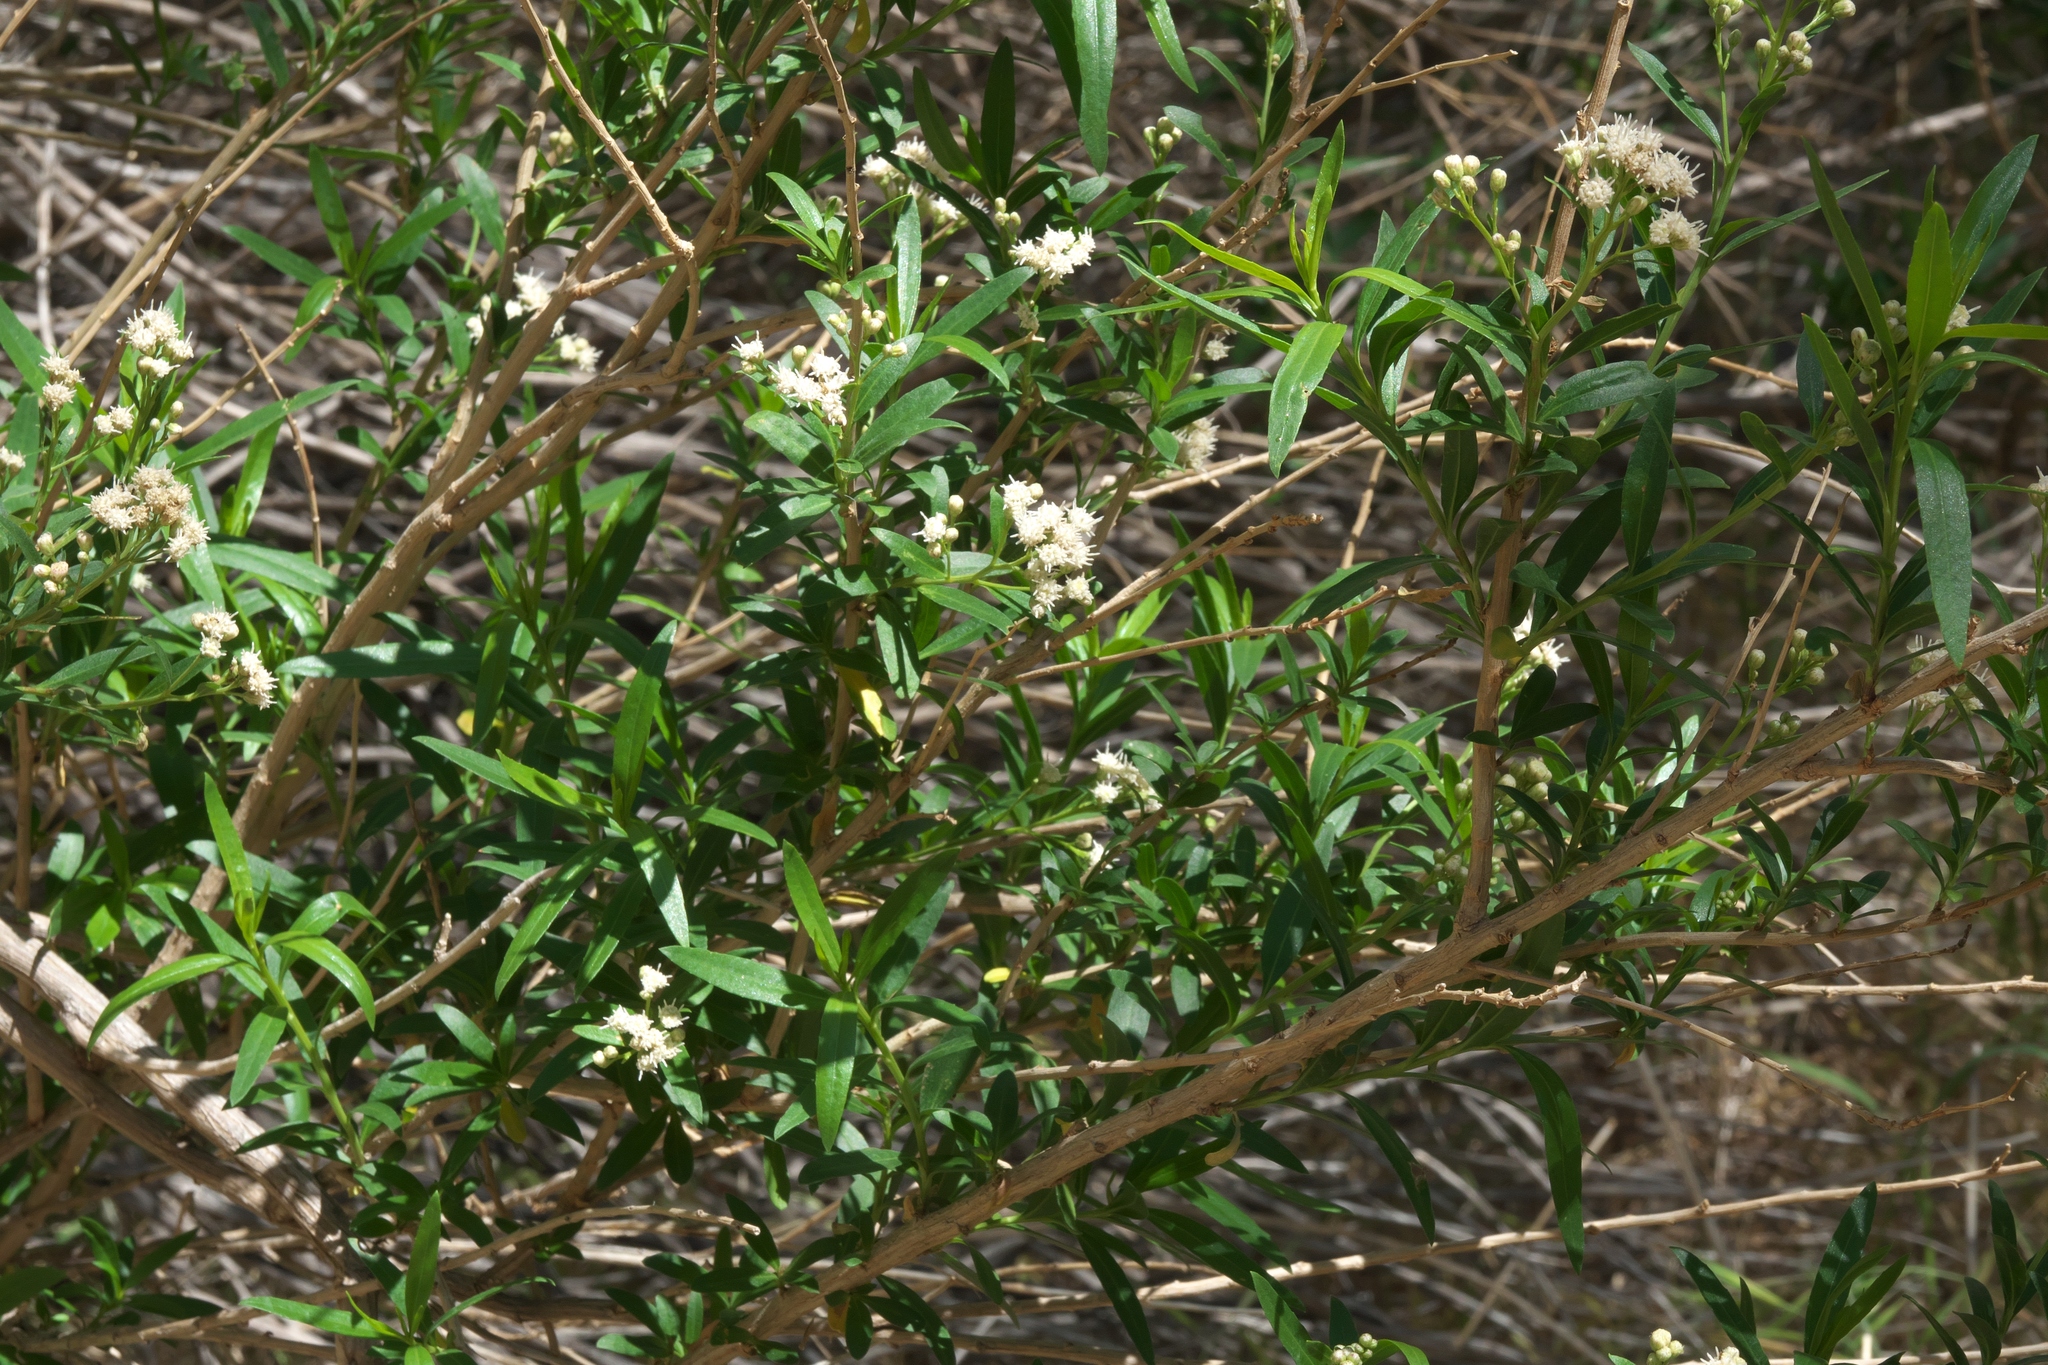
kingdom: Plantae
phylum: Tracheophyta
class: Magnoliopsida
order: Asterales
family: Asteraceae
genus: Baccharis
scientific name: Baccharis salicifolia
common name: Sticky baccharis
